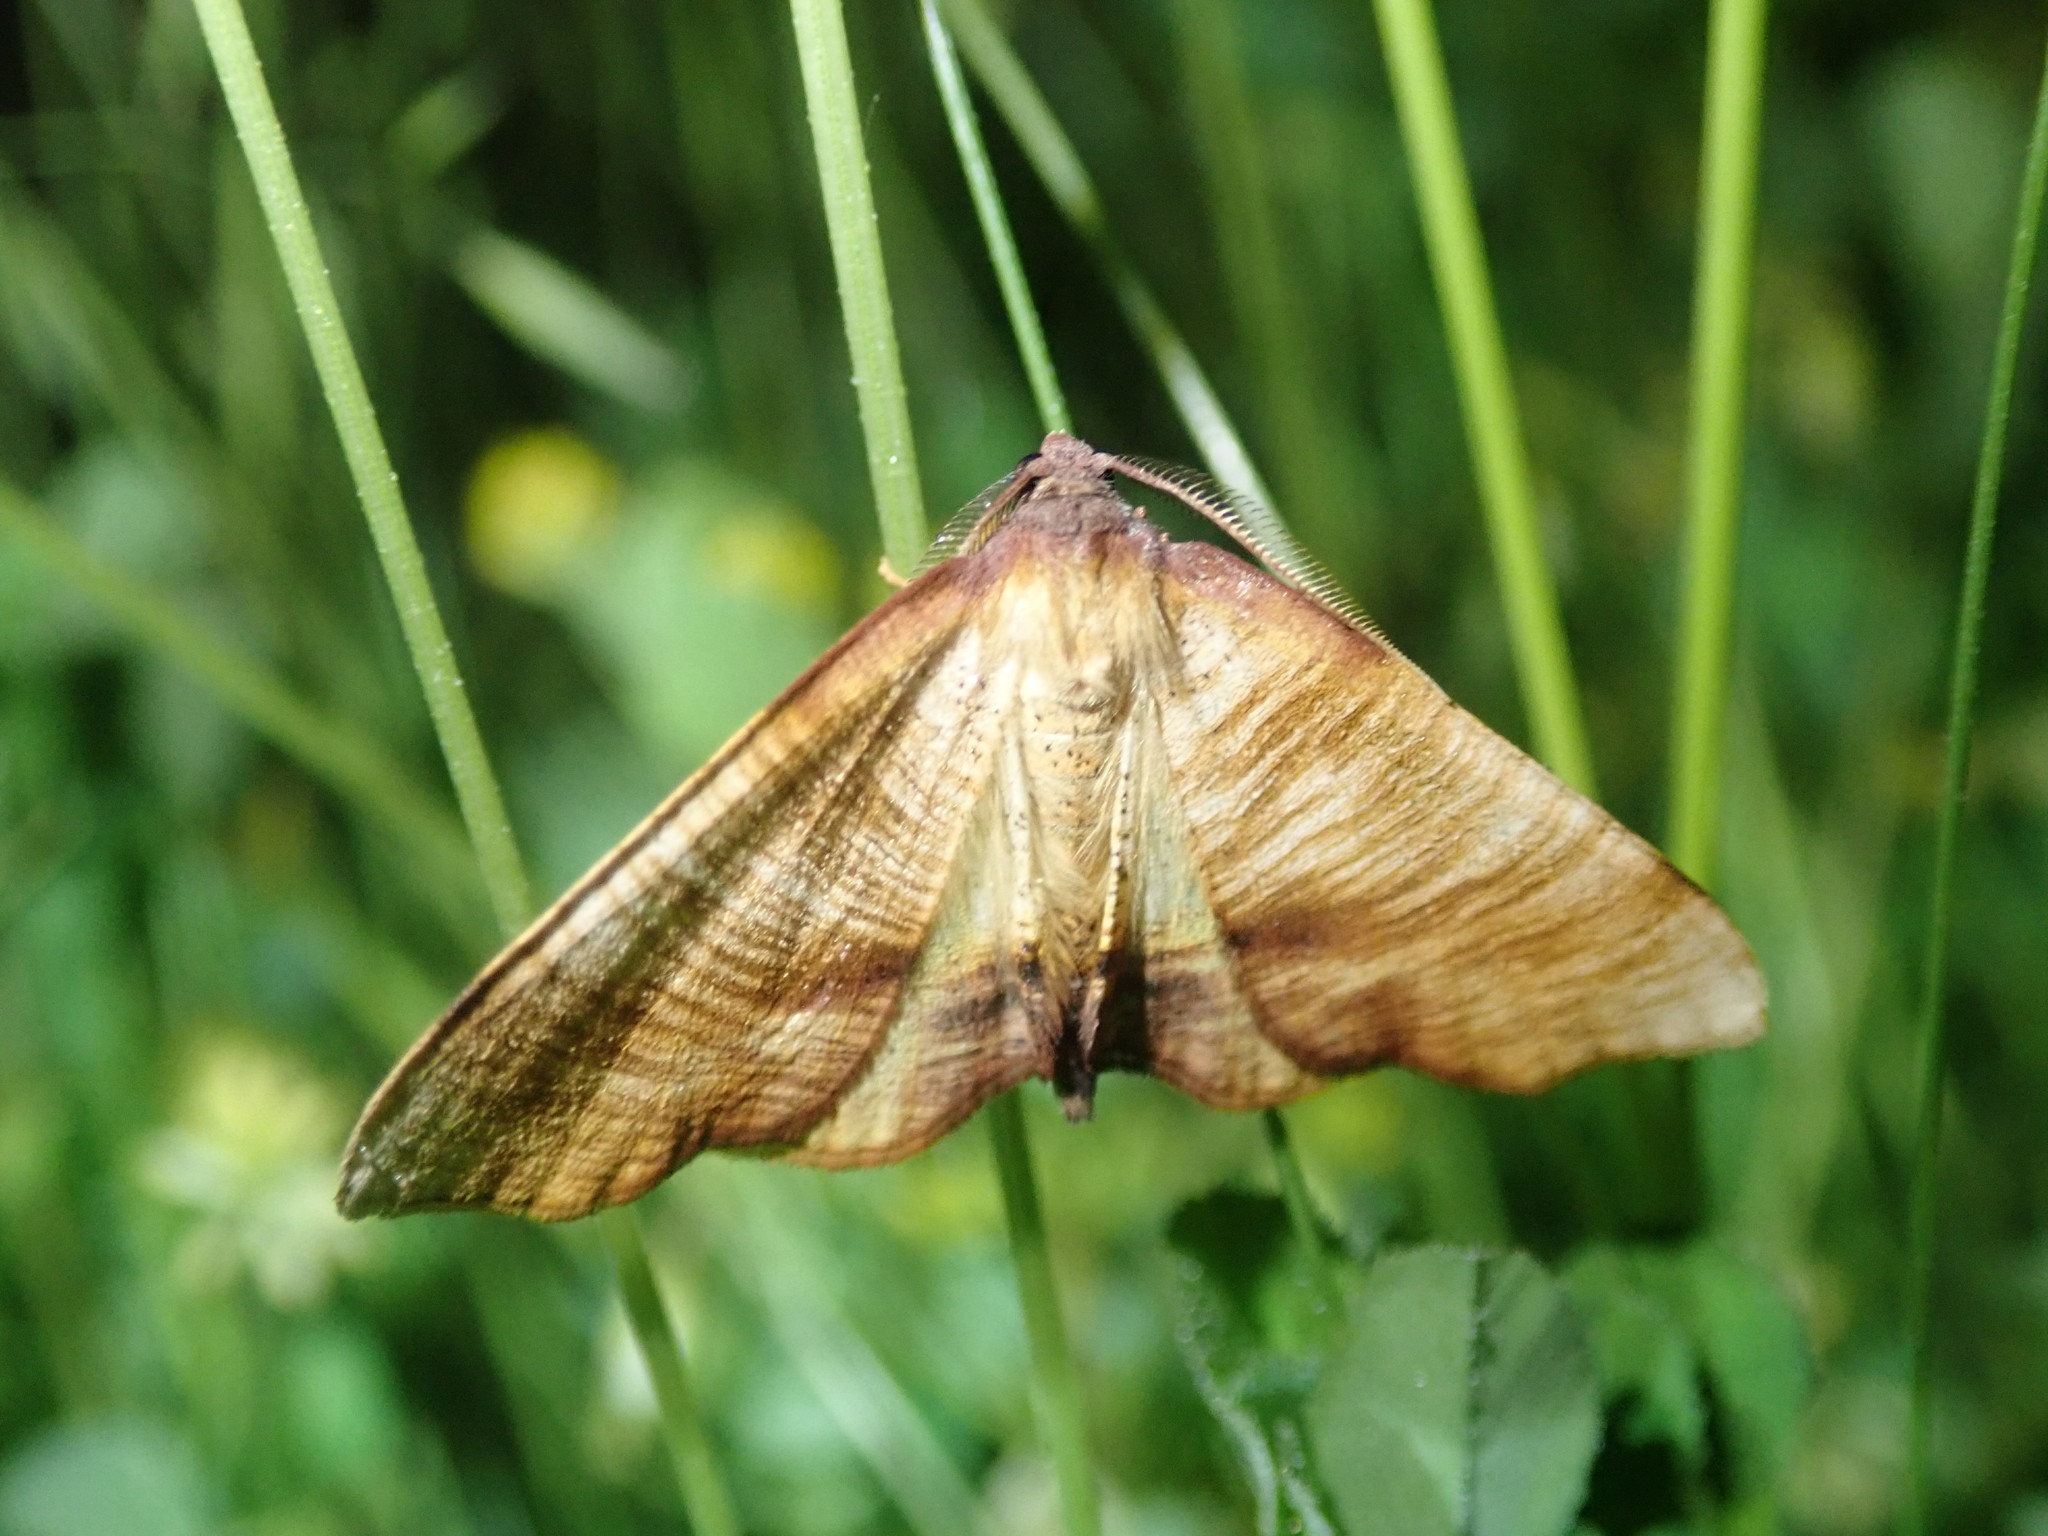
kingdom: Animalia
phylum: Arthropoda
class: Insecta
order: Lepidoptera
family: Geometridae
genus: Plagodis
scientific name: Plagodis dolabraria
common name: Scorched wing
